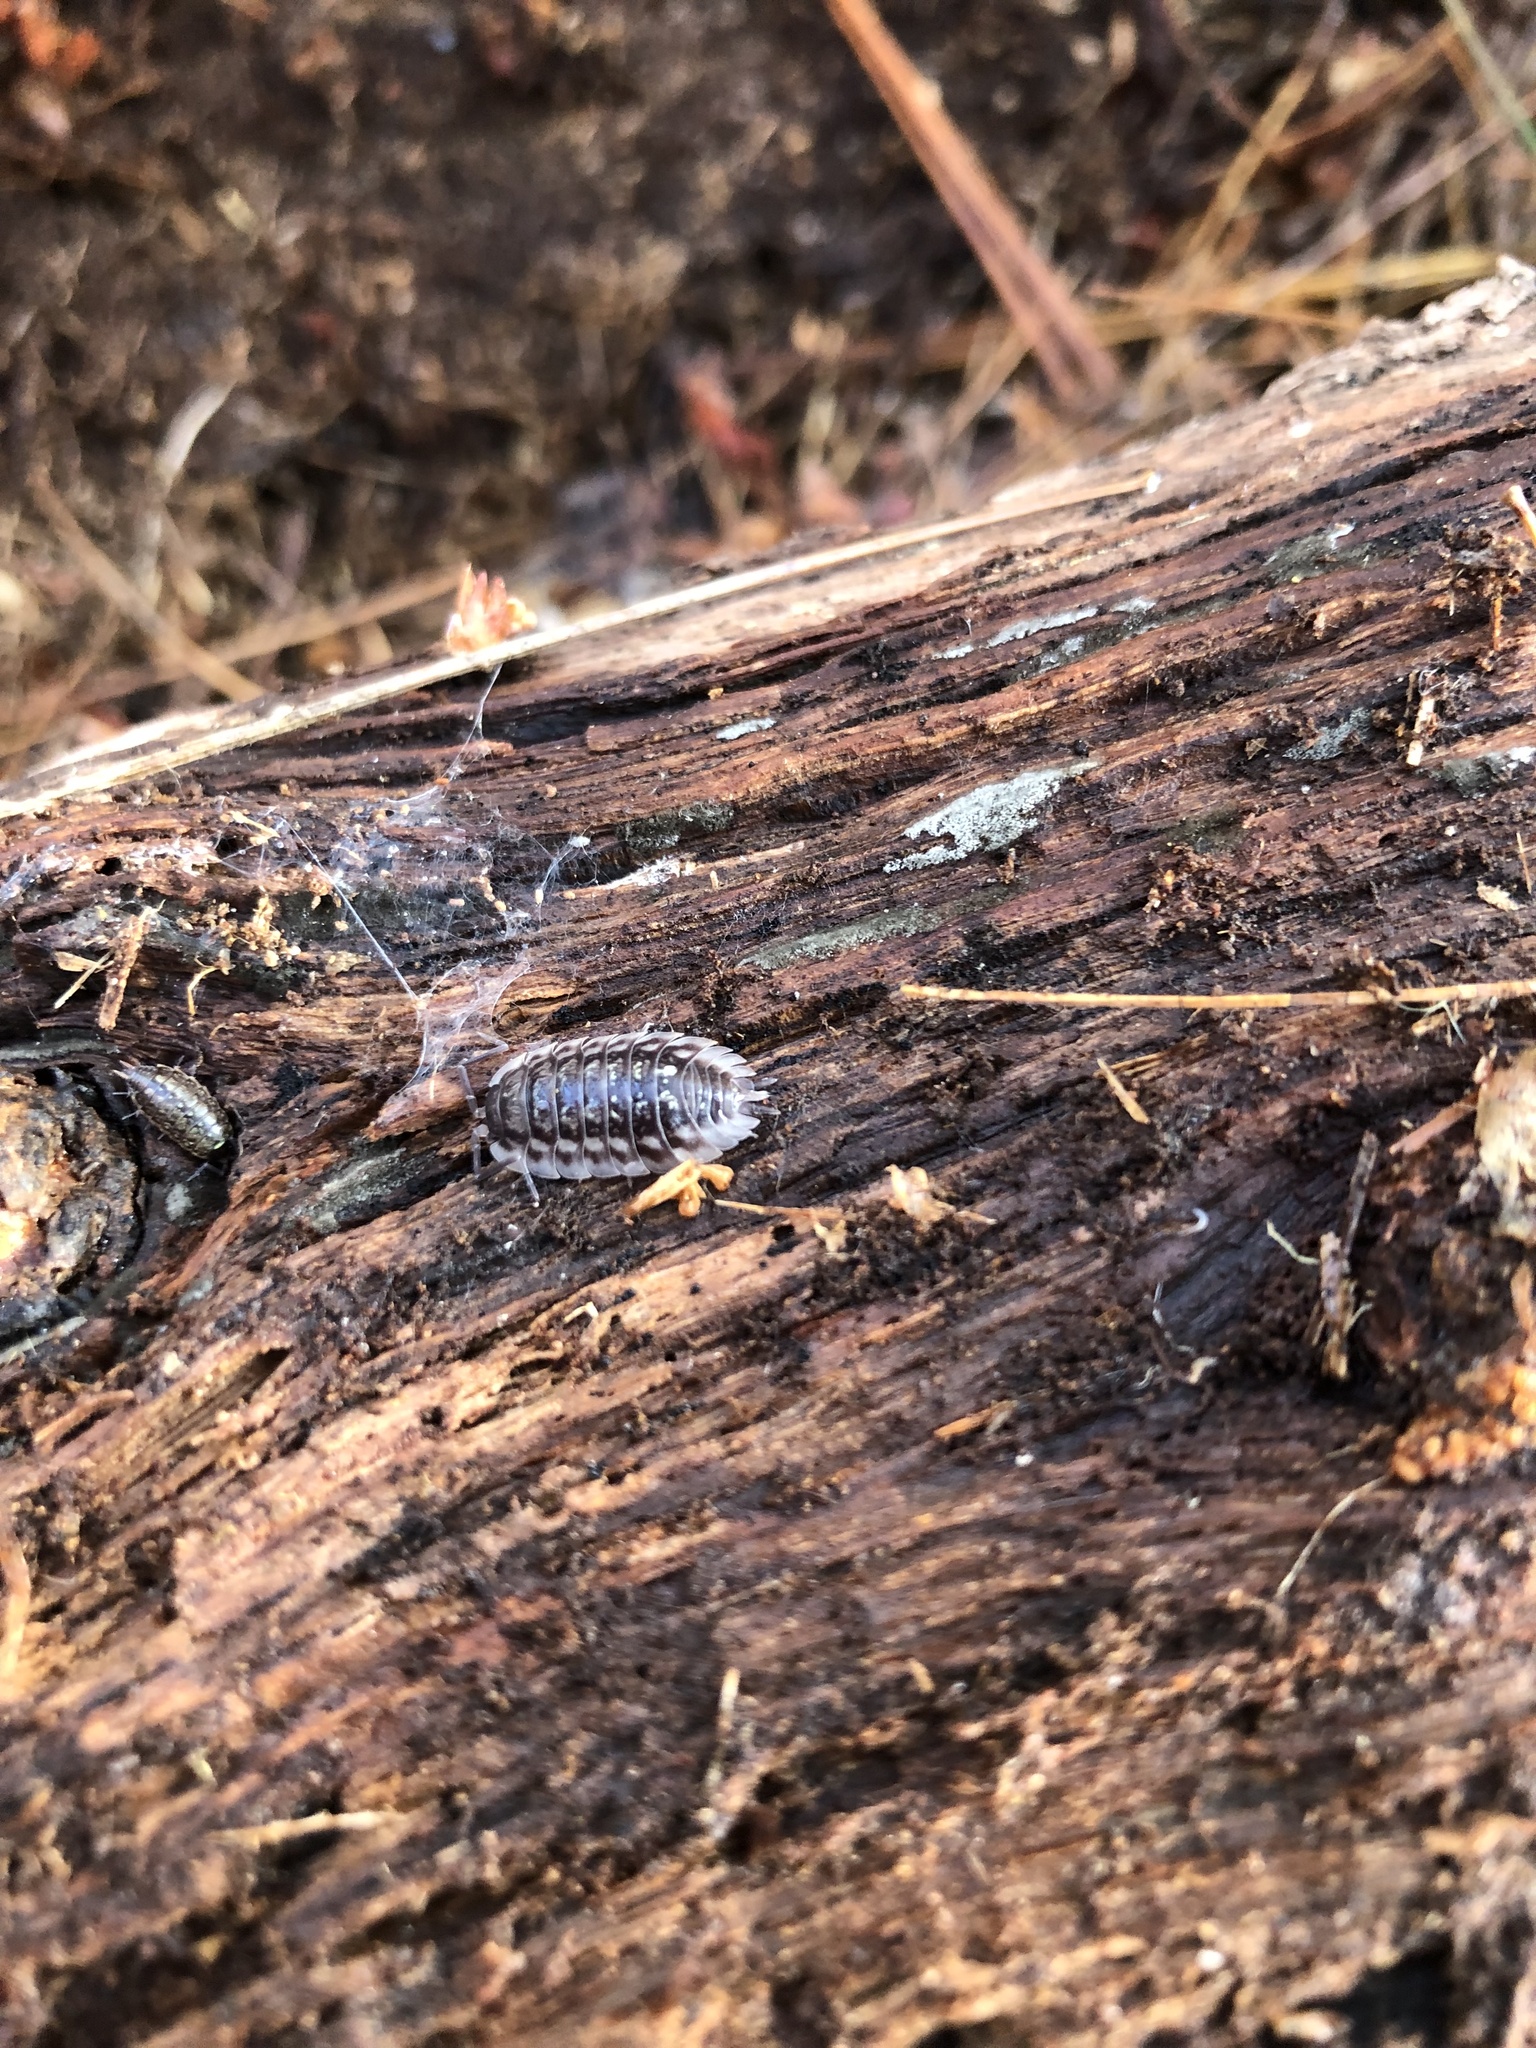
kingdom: Animalia
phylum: Arthropoda
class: Malacostraca
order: Isopoda
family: Oniscidae
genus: Oniscus
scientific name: Oniscus asellus
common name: Common shiny woodlouse
